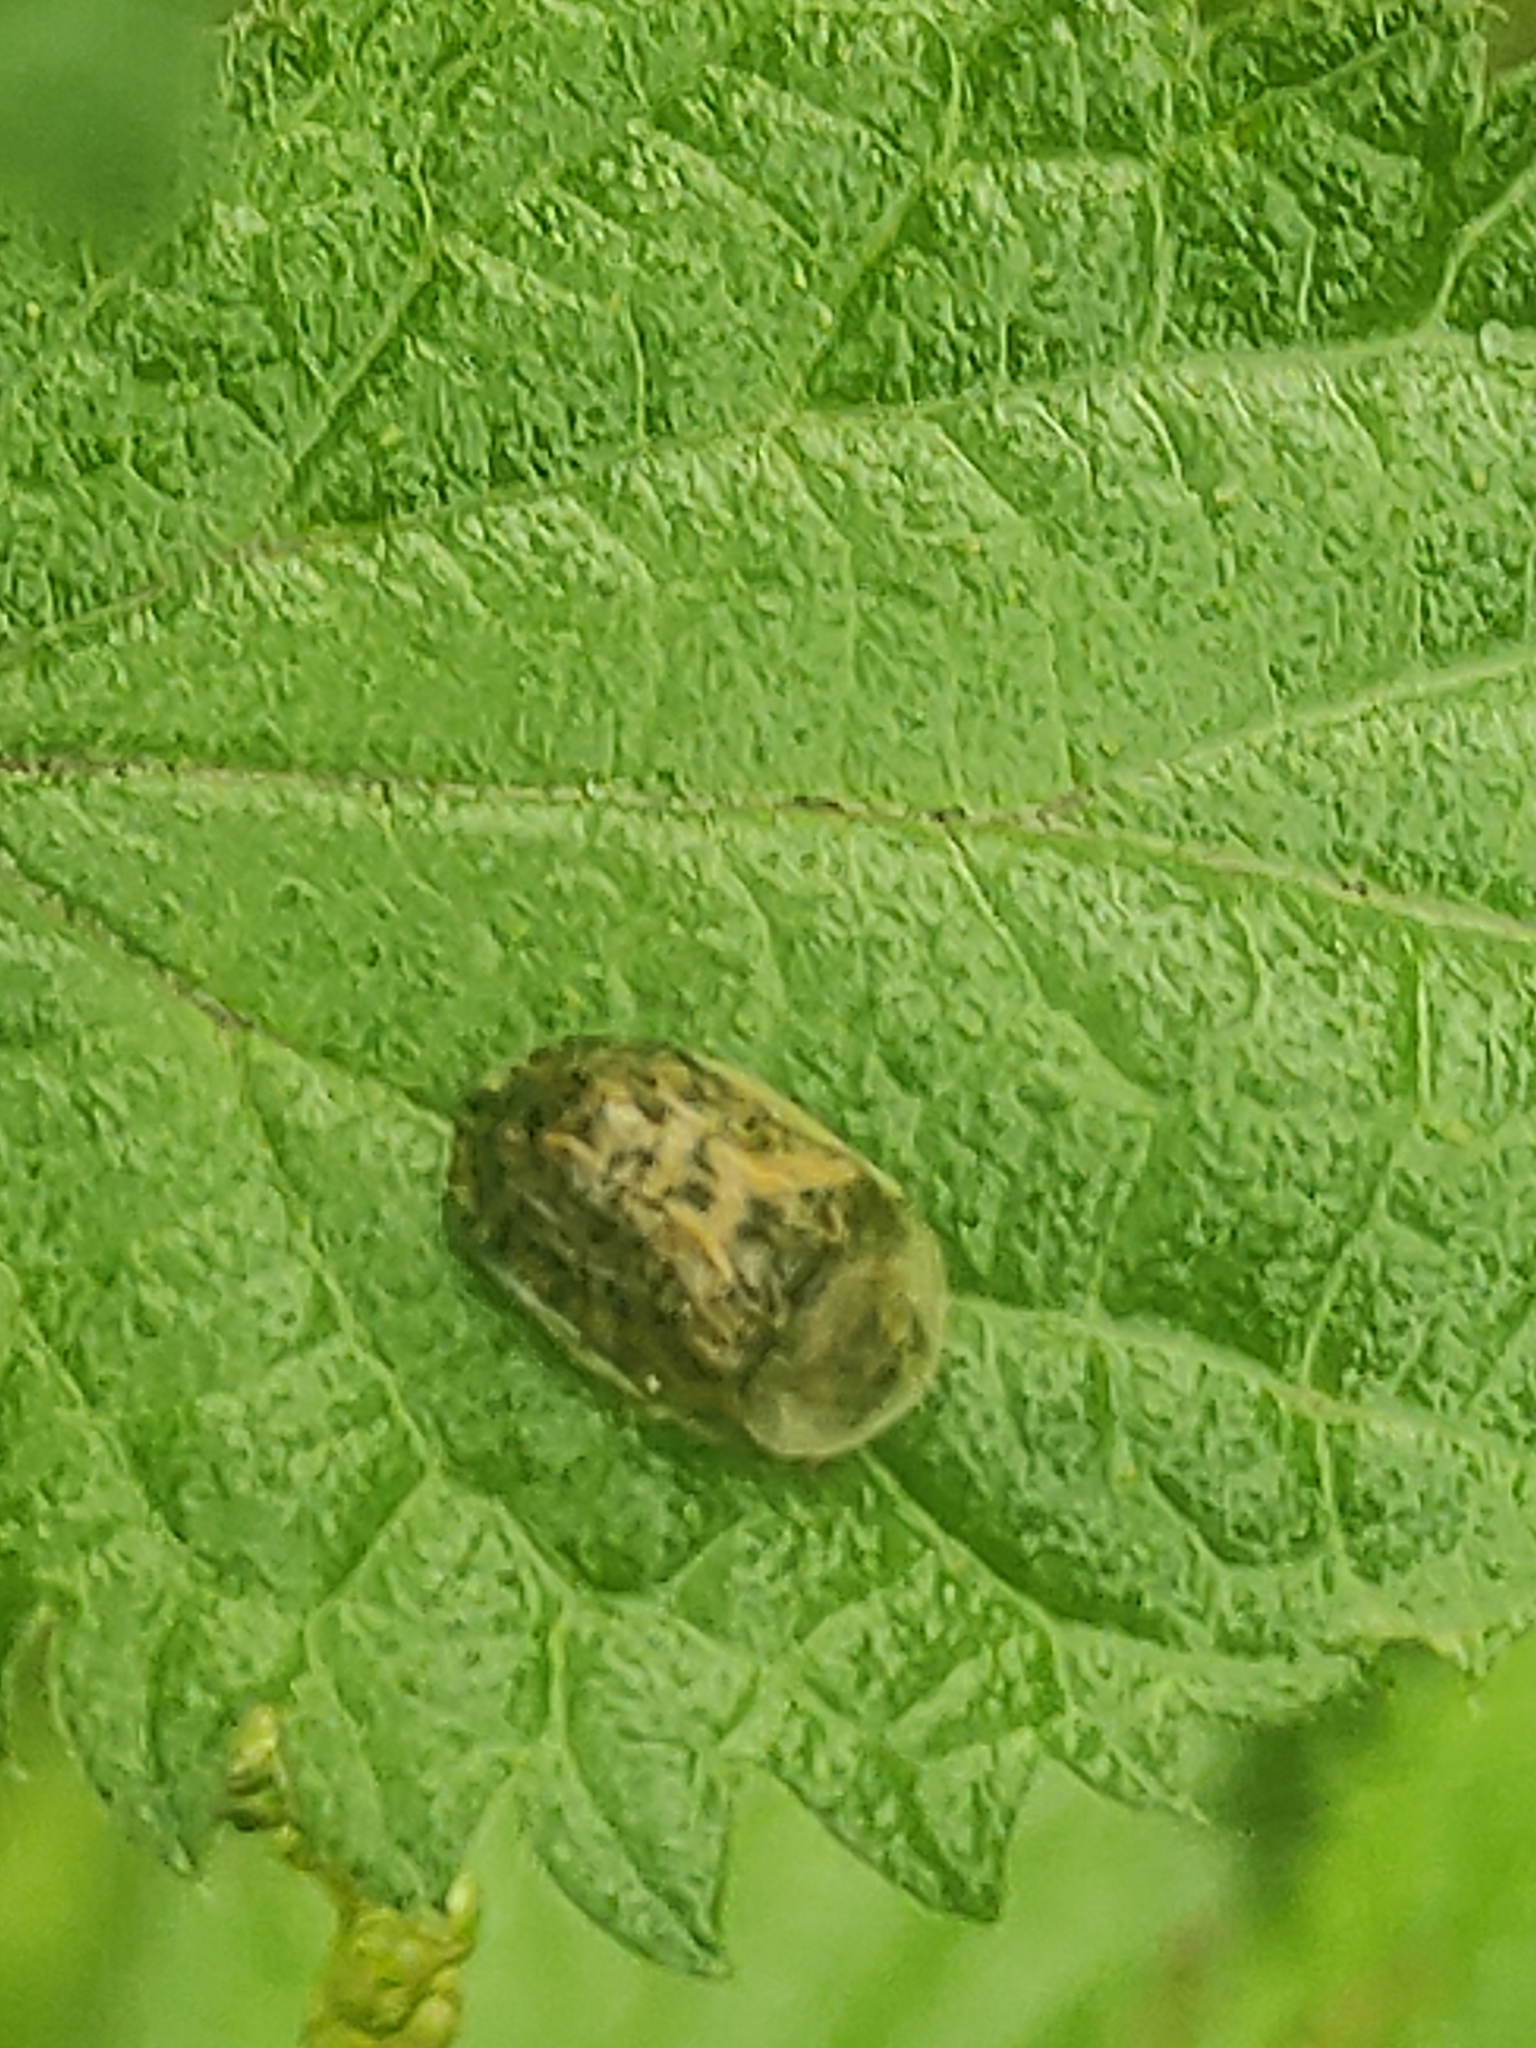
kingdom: Animalia
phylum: Arthropoda
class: Insecta
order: Coleoptera
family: Chrysomelidae
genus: Cassida
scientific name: Cassida nebulosa
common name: Beet tortoise beetle
